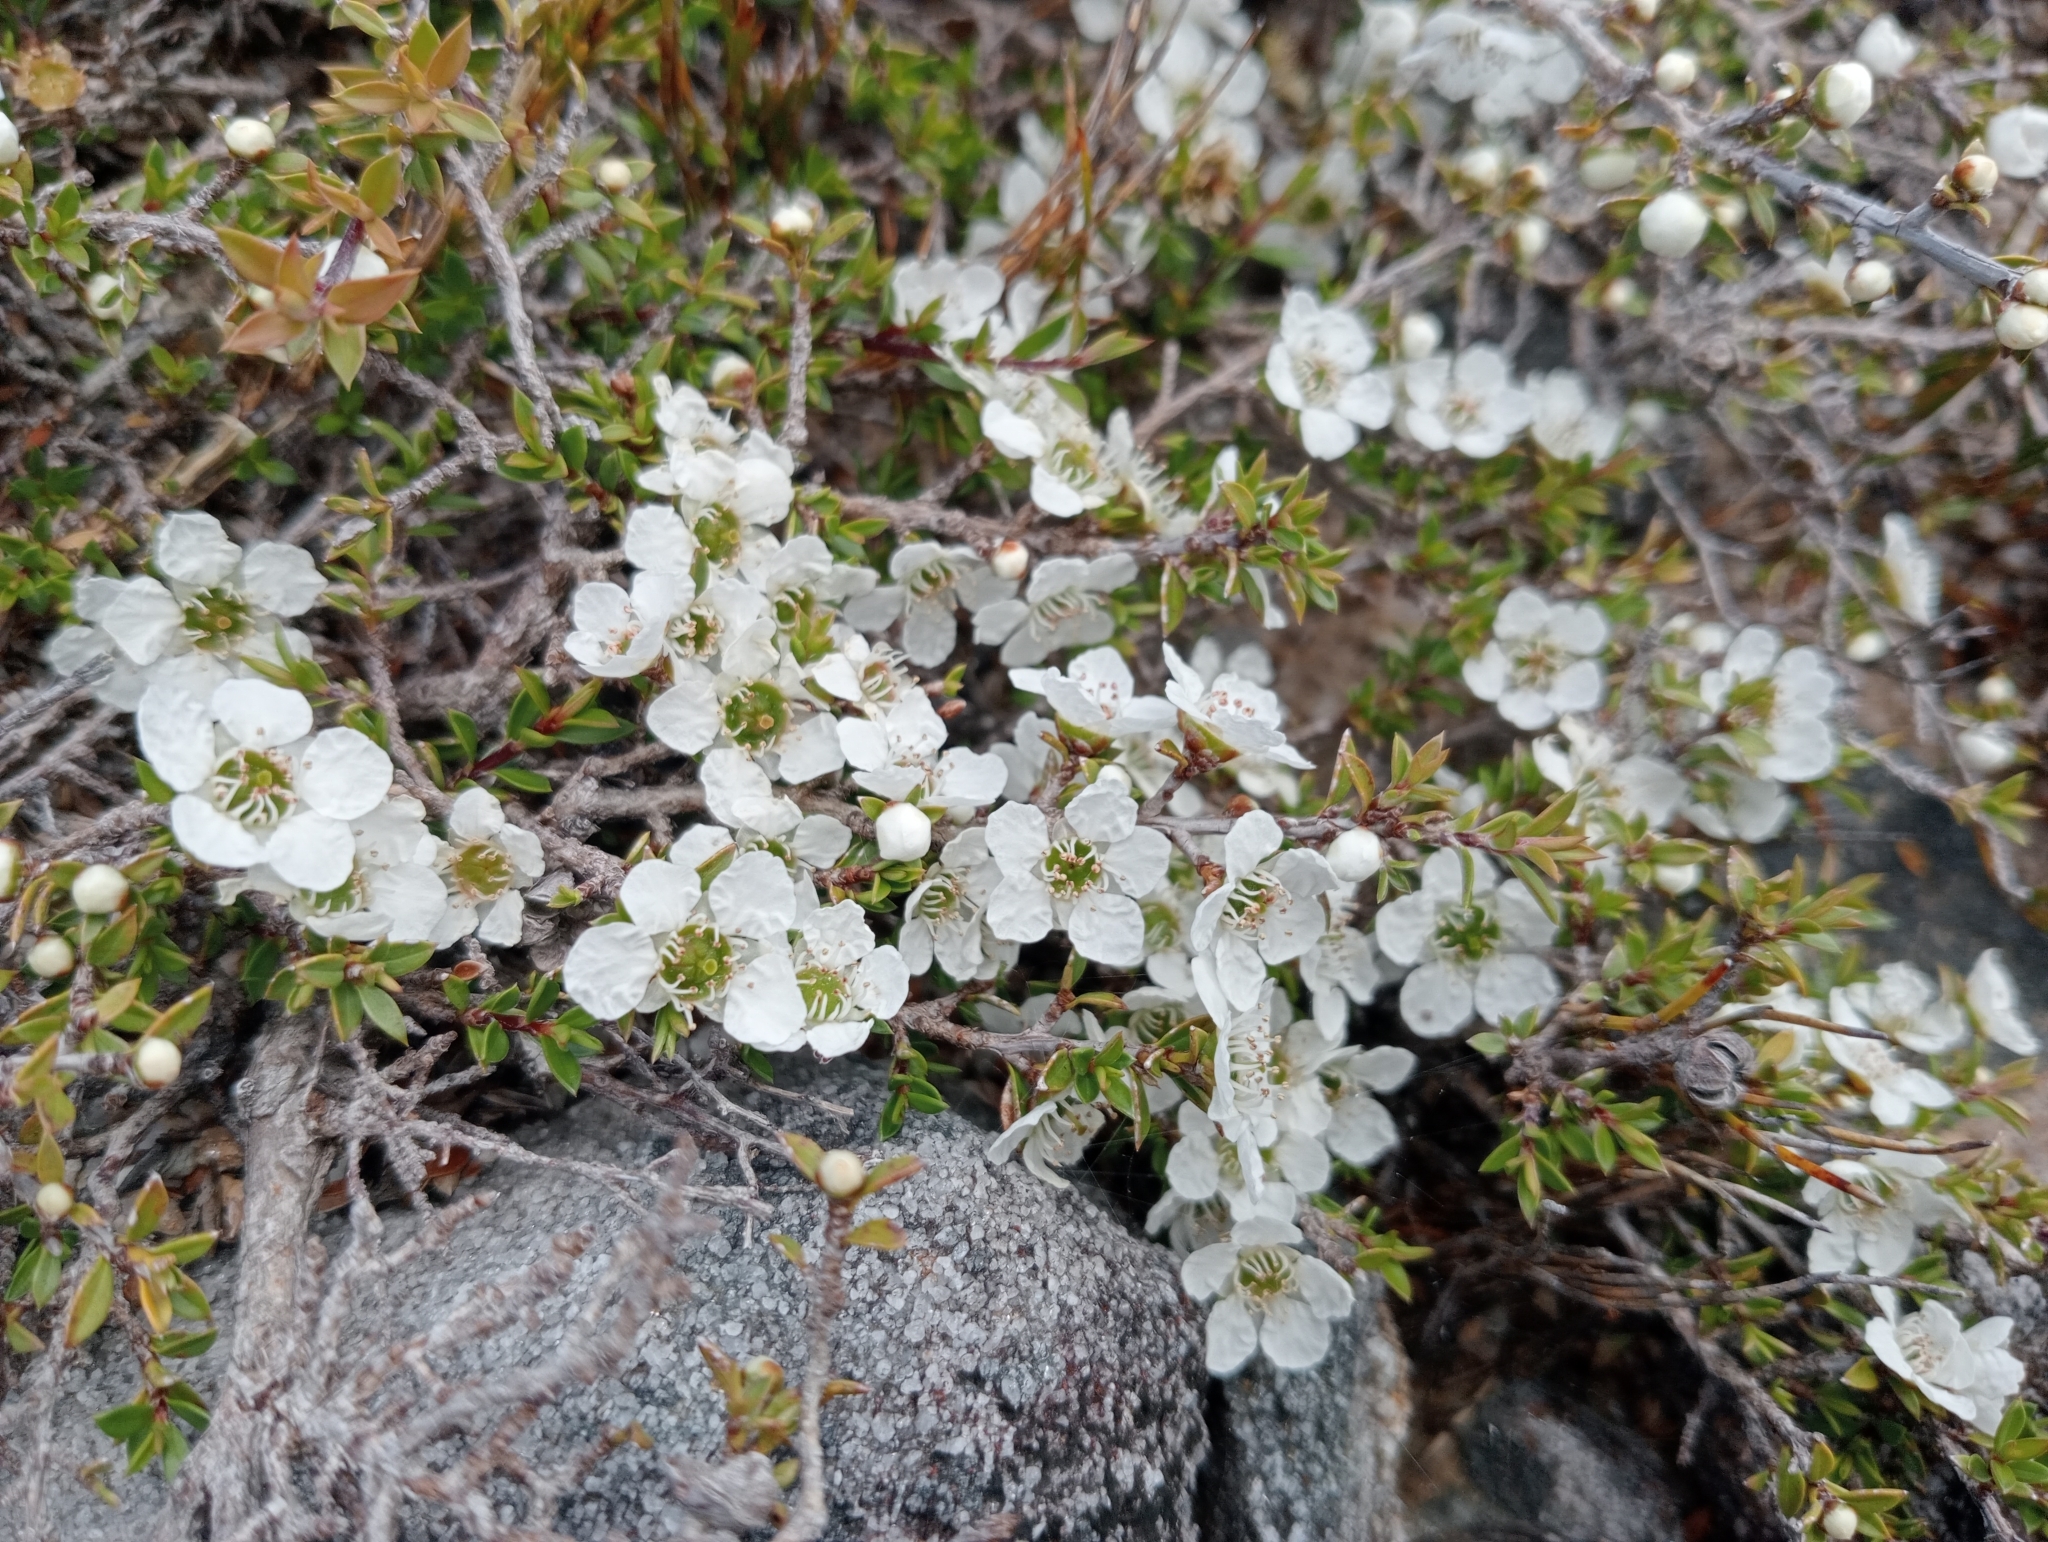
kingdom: Plantae
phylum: Tracheophyta
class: Magnoliopsida
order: Myrtales
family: Myrtaceae
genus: Leptospermum
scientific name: Leptospermum scoparium
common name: Broom tea-tree
